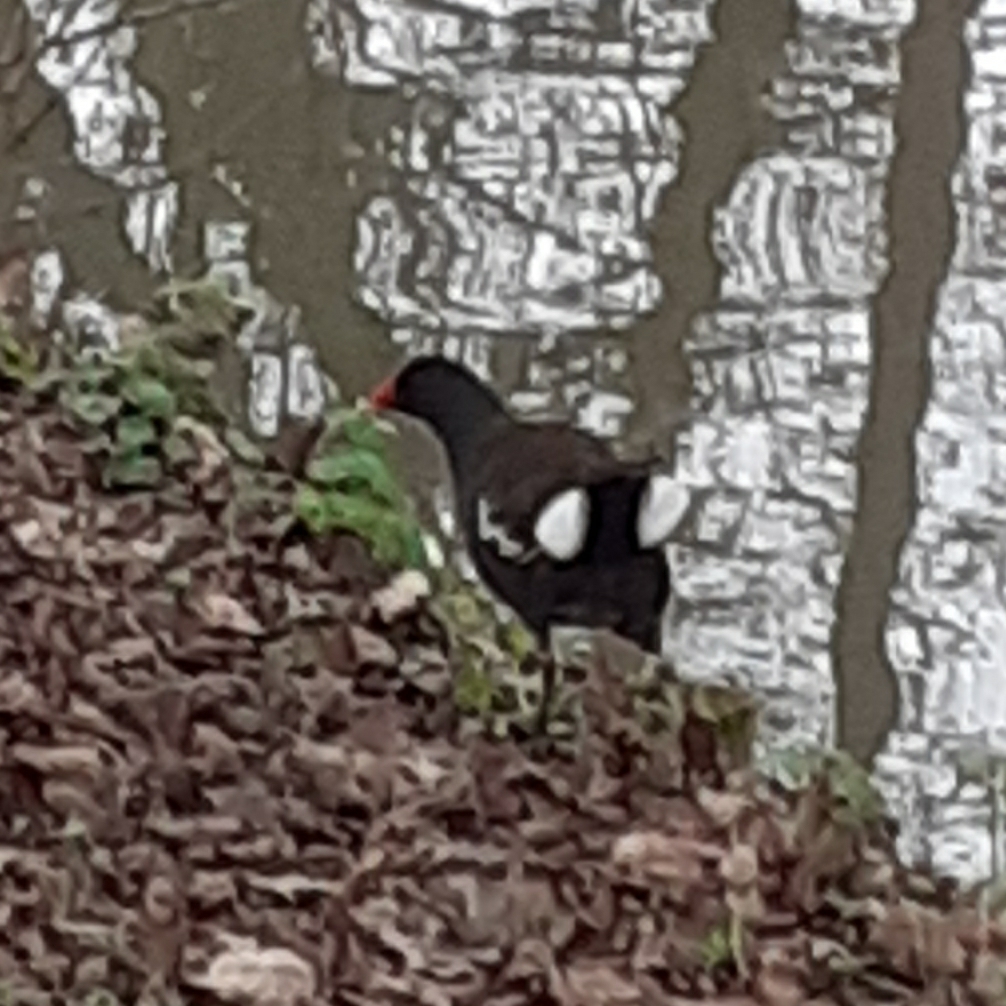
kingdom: Animalia
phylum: Chordata
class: Aves
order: Gruiformes
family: Rallidae
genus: Gallinula
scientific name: Gallinula chloropus
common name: Common moorhen
